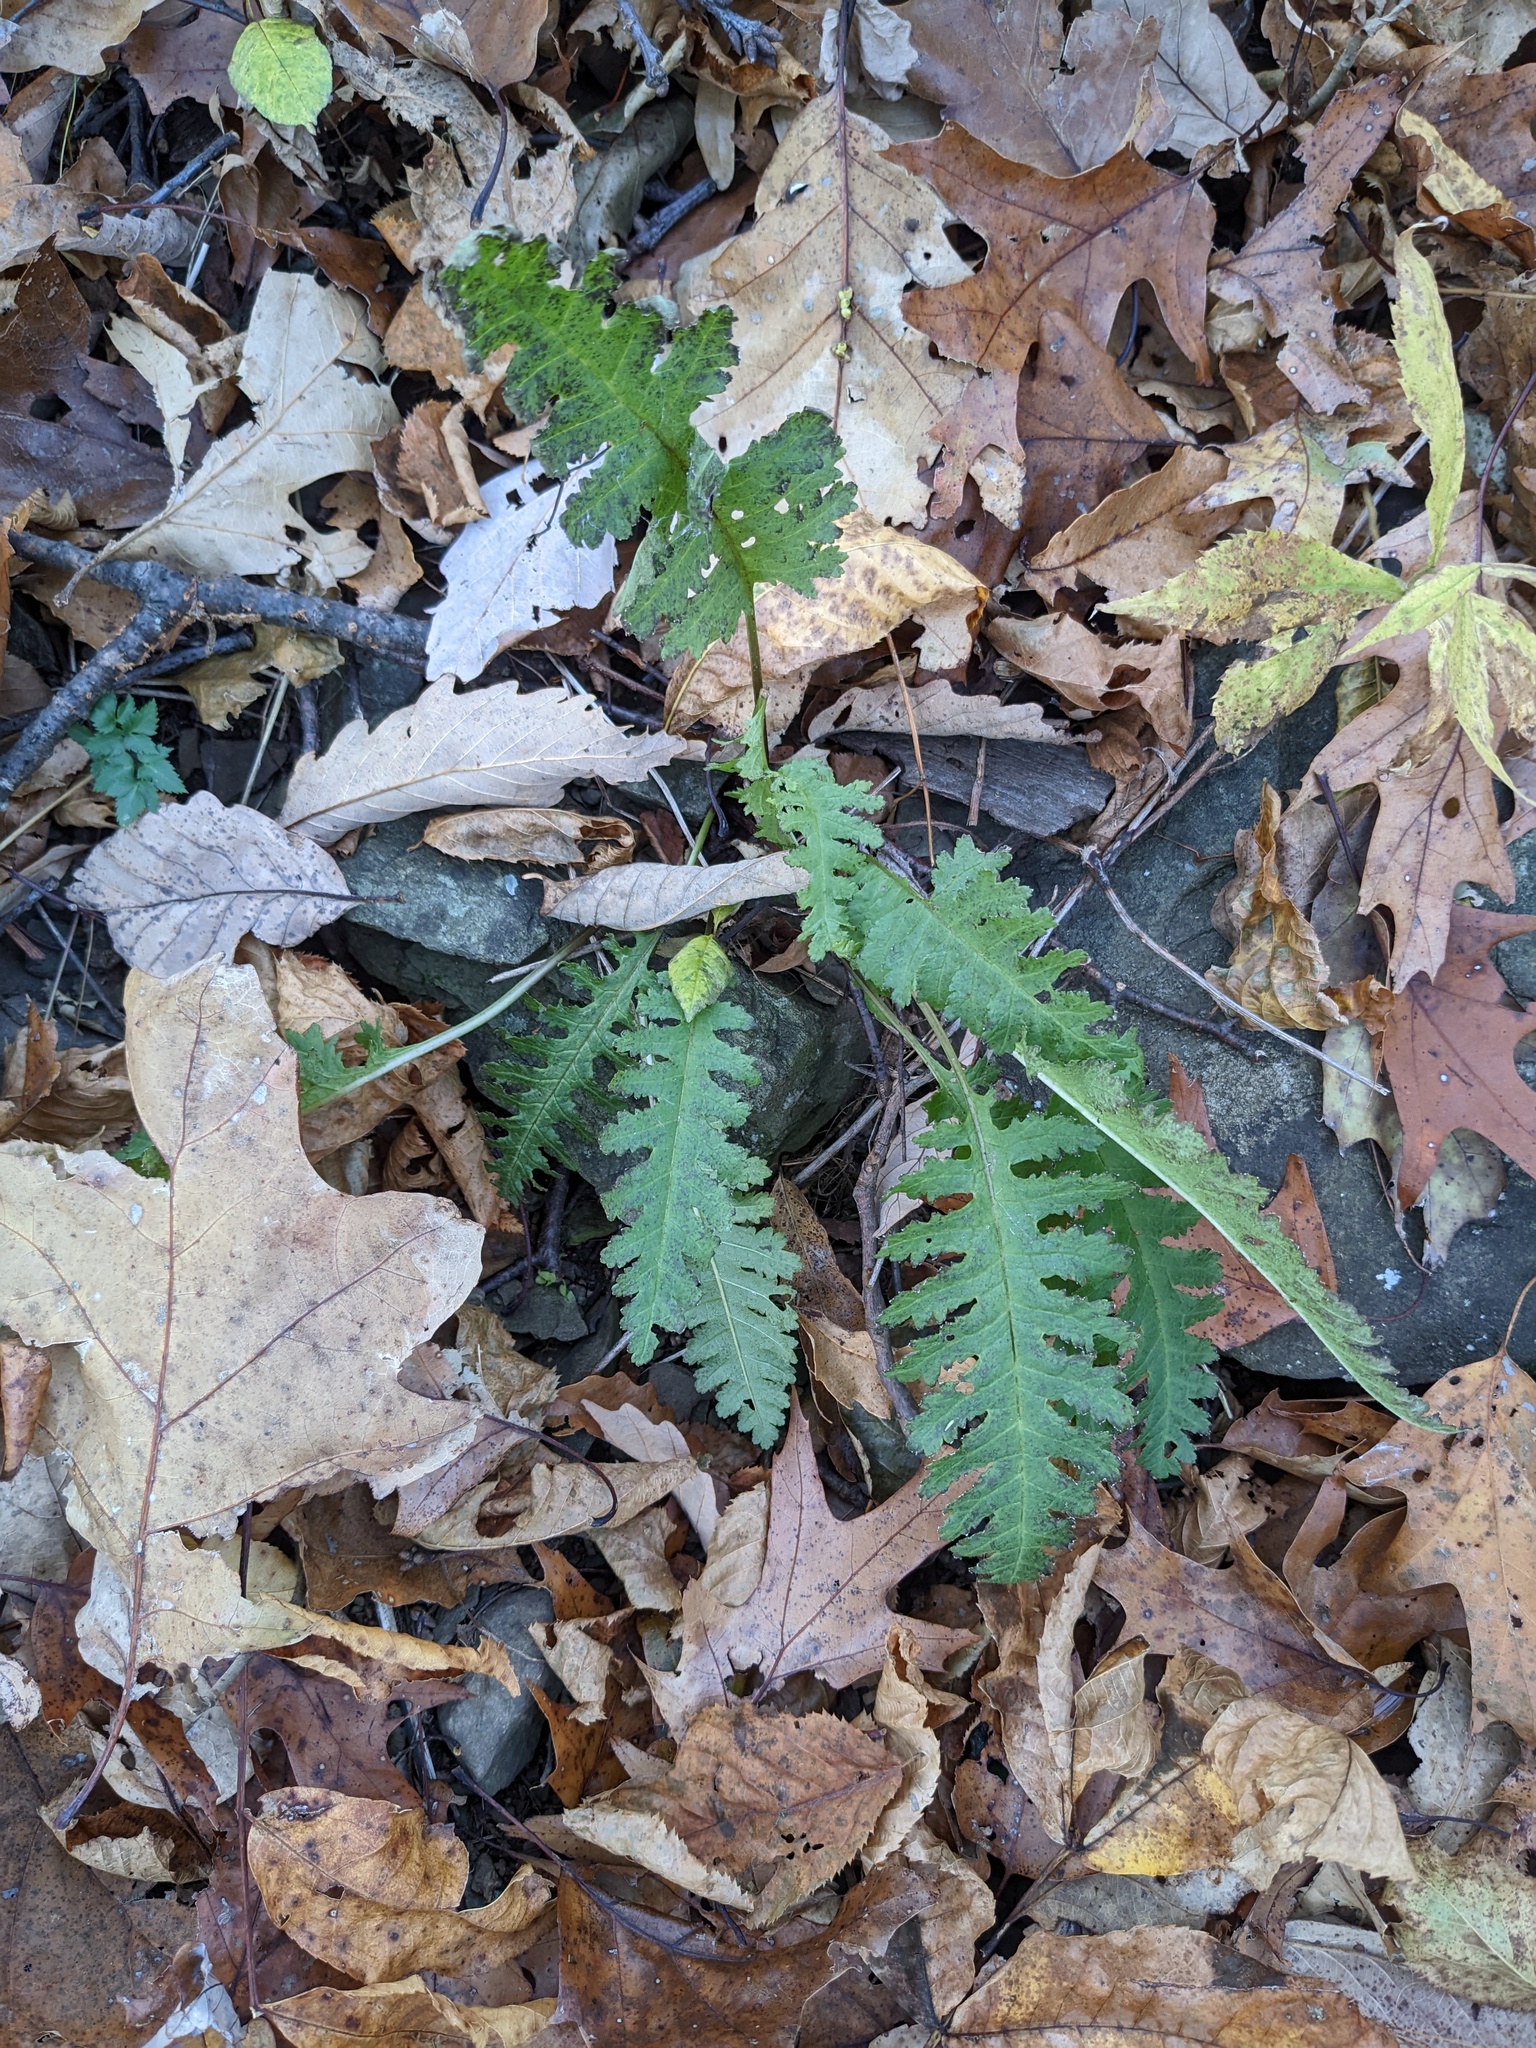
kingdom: Plantae
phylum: Tracheophyta
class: Magnoliopsida
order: Lamiales
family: Orobanchaceae
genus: Pedicularis
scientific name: Pedicularis canadensis
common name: Early lousewort
